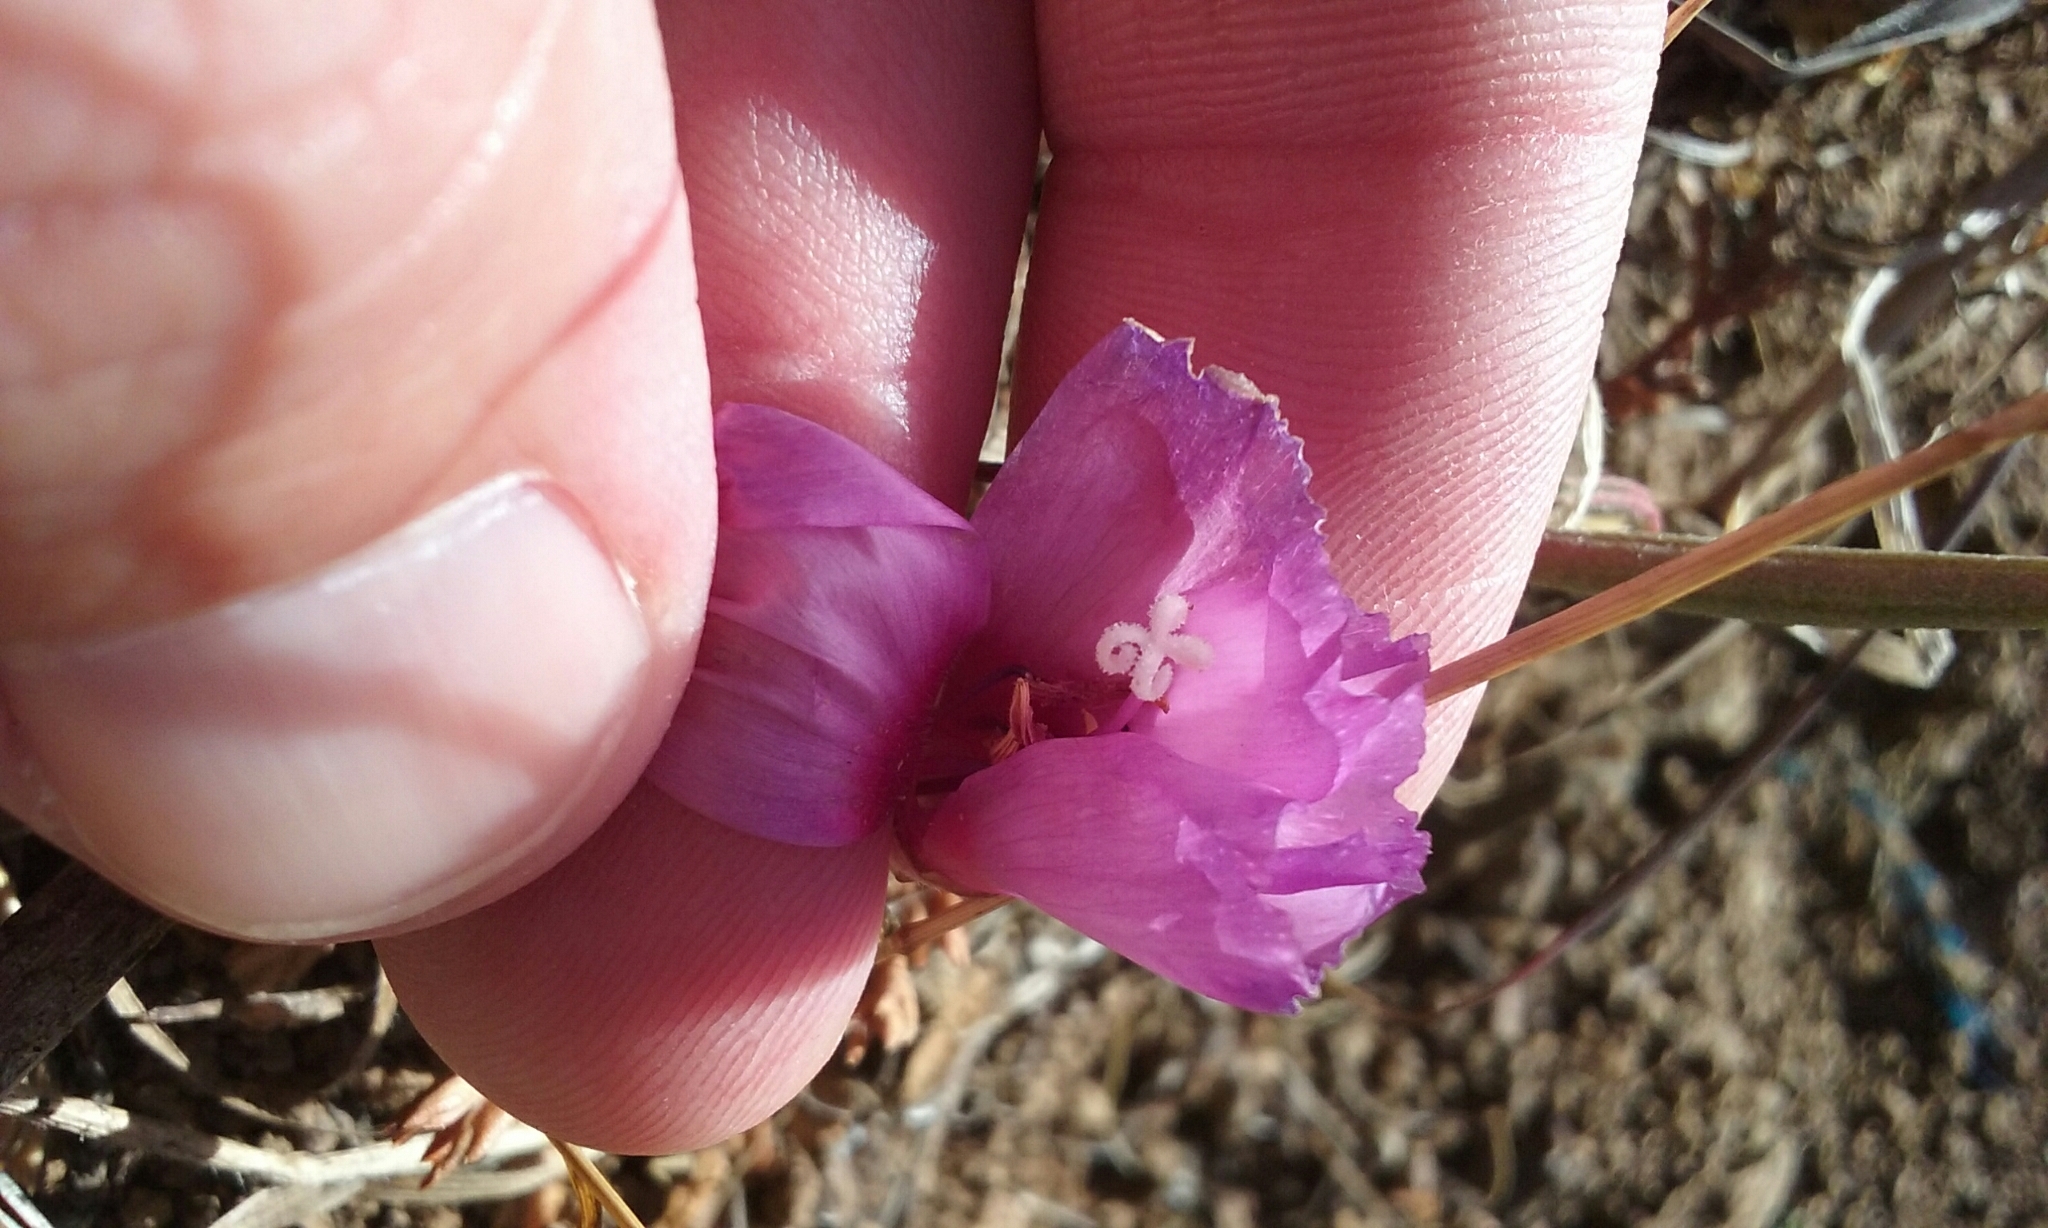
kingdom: Plantae
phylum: Tracheophyta
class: Magnoliopsida
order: Myrtales
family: Onagraceae
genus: Clarkia
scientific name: Clarkia rubicunda
